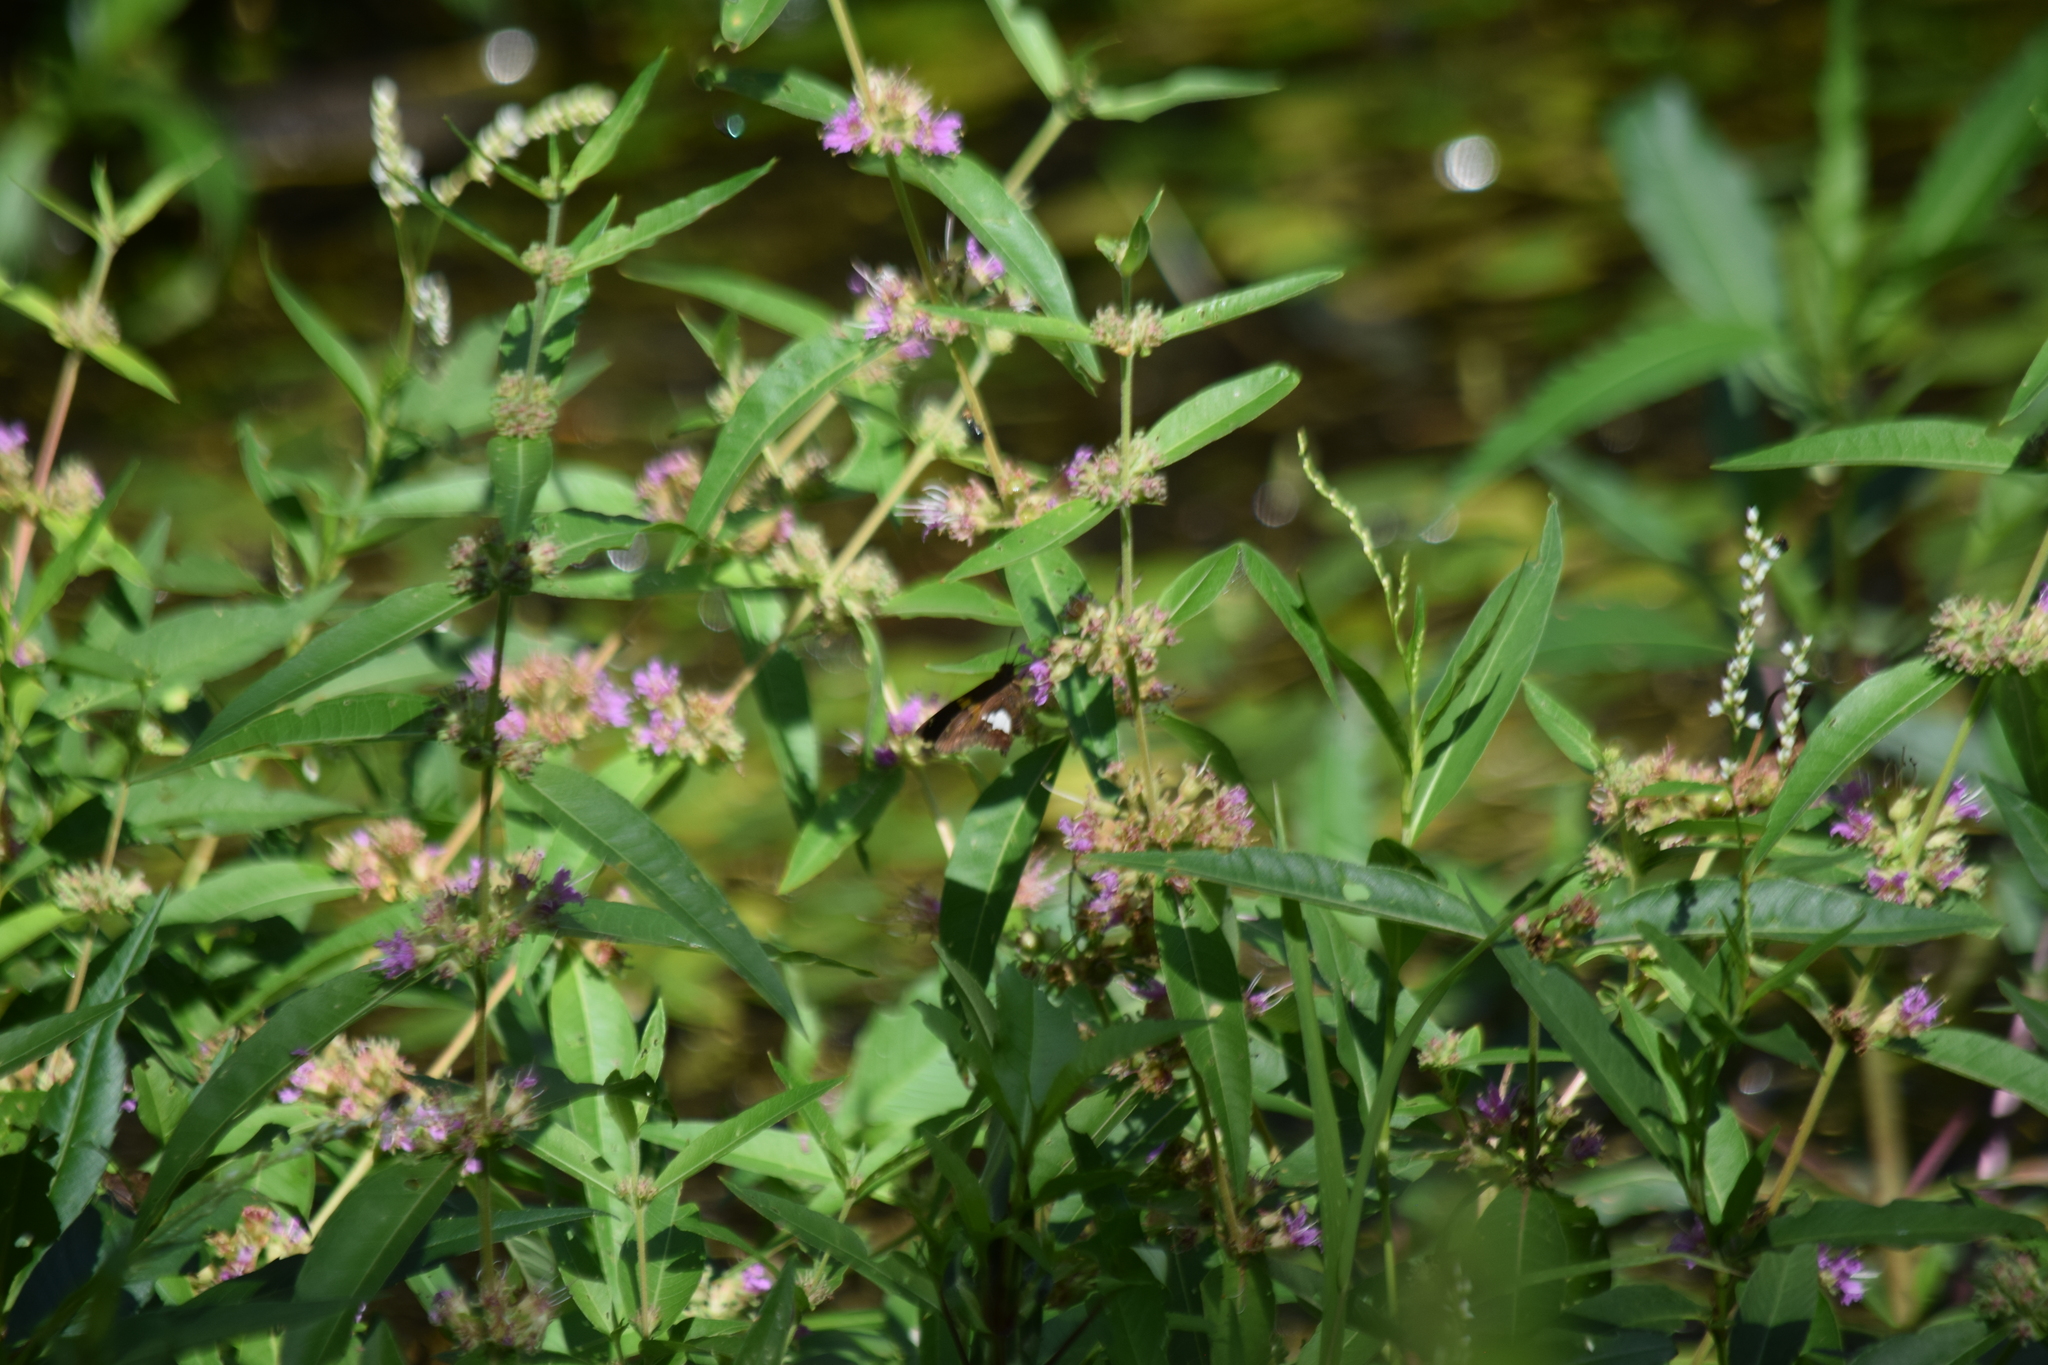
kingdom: Animalia
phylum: Arthropoda
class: Insecta
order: Lepidoptera
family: Hesperiidae
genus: Epargyreus
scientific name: Epargyreus clarus
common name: Silver-spotted skipper
